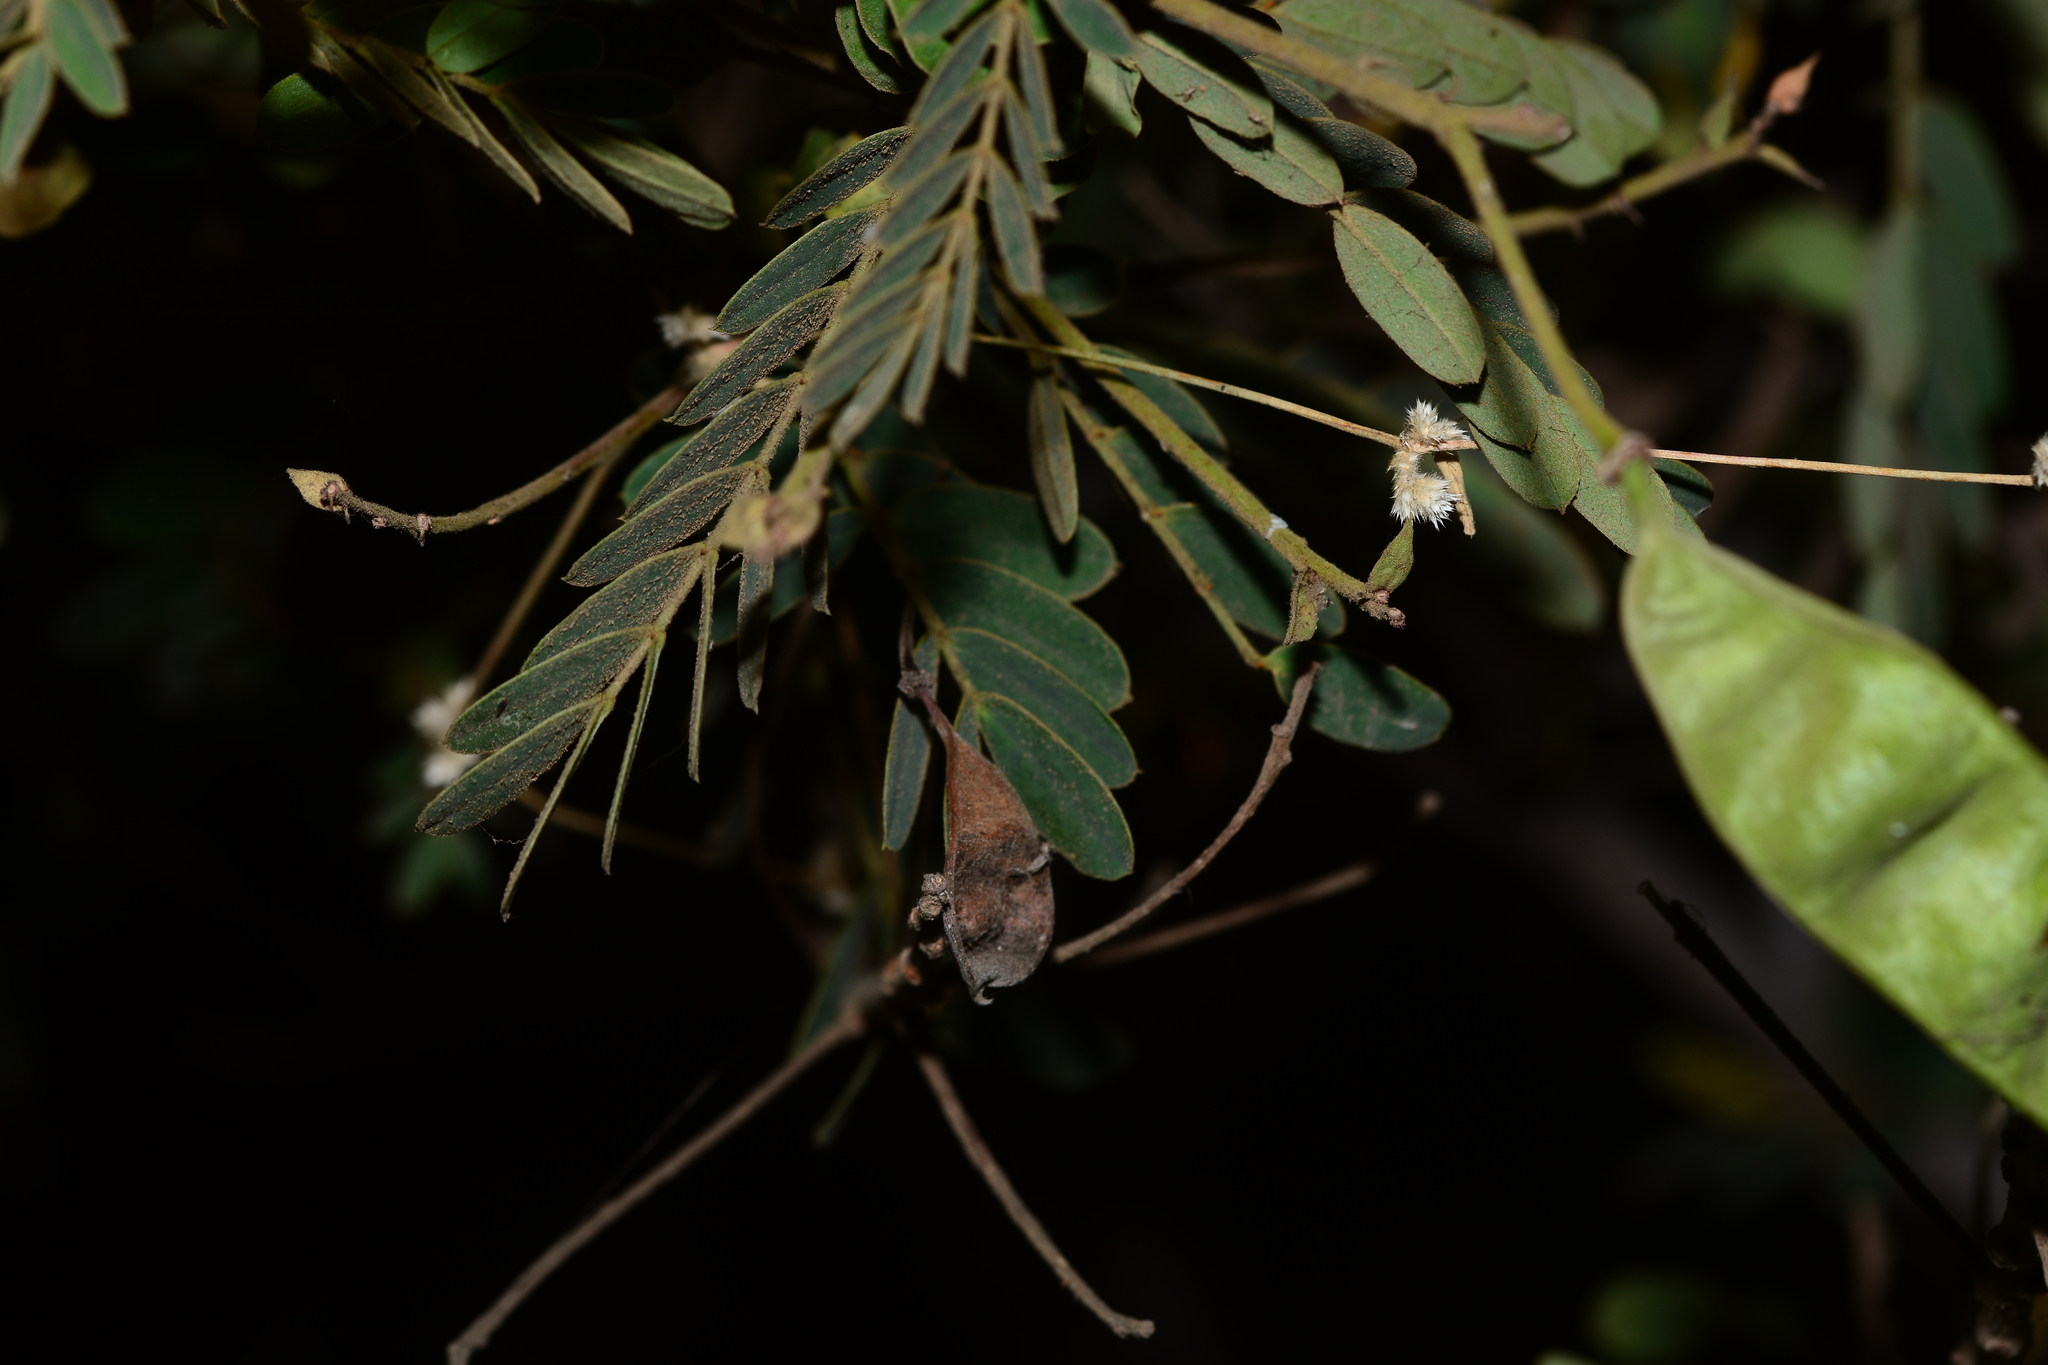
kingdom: Plantae
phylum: Tracheophyta
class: Magnoliopsida
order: Fabales
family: Fabaceae
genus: Senna
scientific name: Senna auriculata
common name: Tanner's cassia
